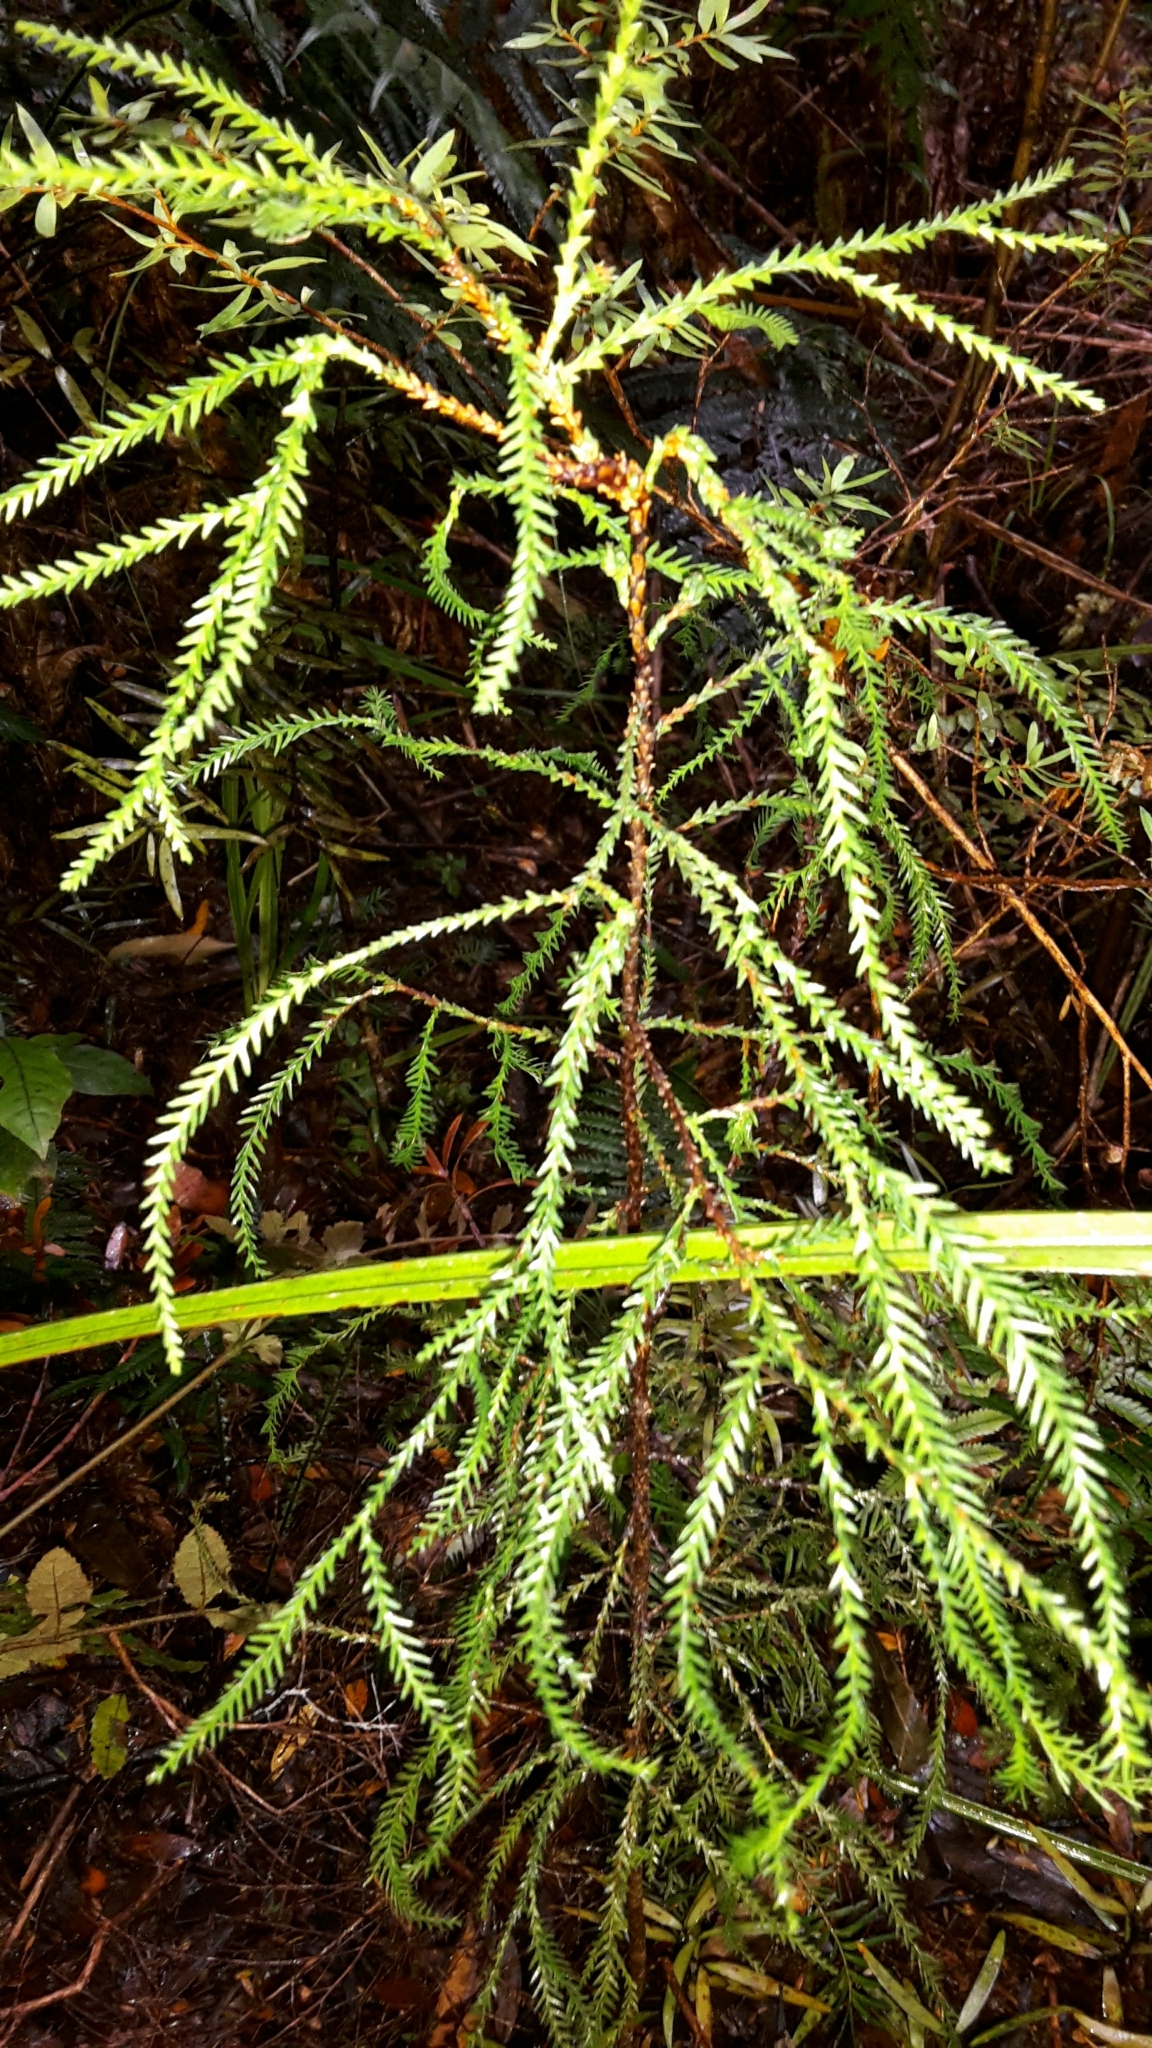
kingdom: Plantae
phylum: Tracheophyta
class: Pinopsida
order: Pinales
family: Podocarpaceae
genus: Manoao
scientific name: Manoao colensoi
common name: Silver pine
